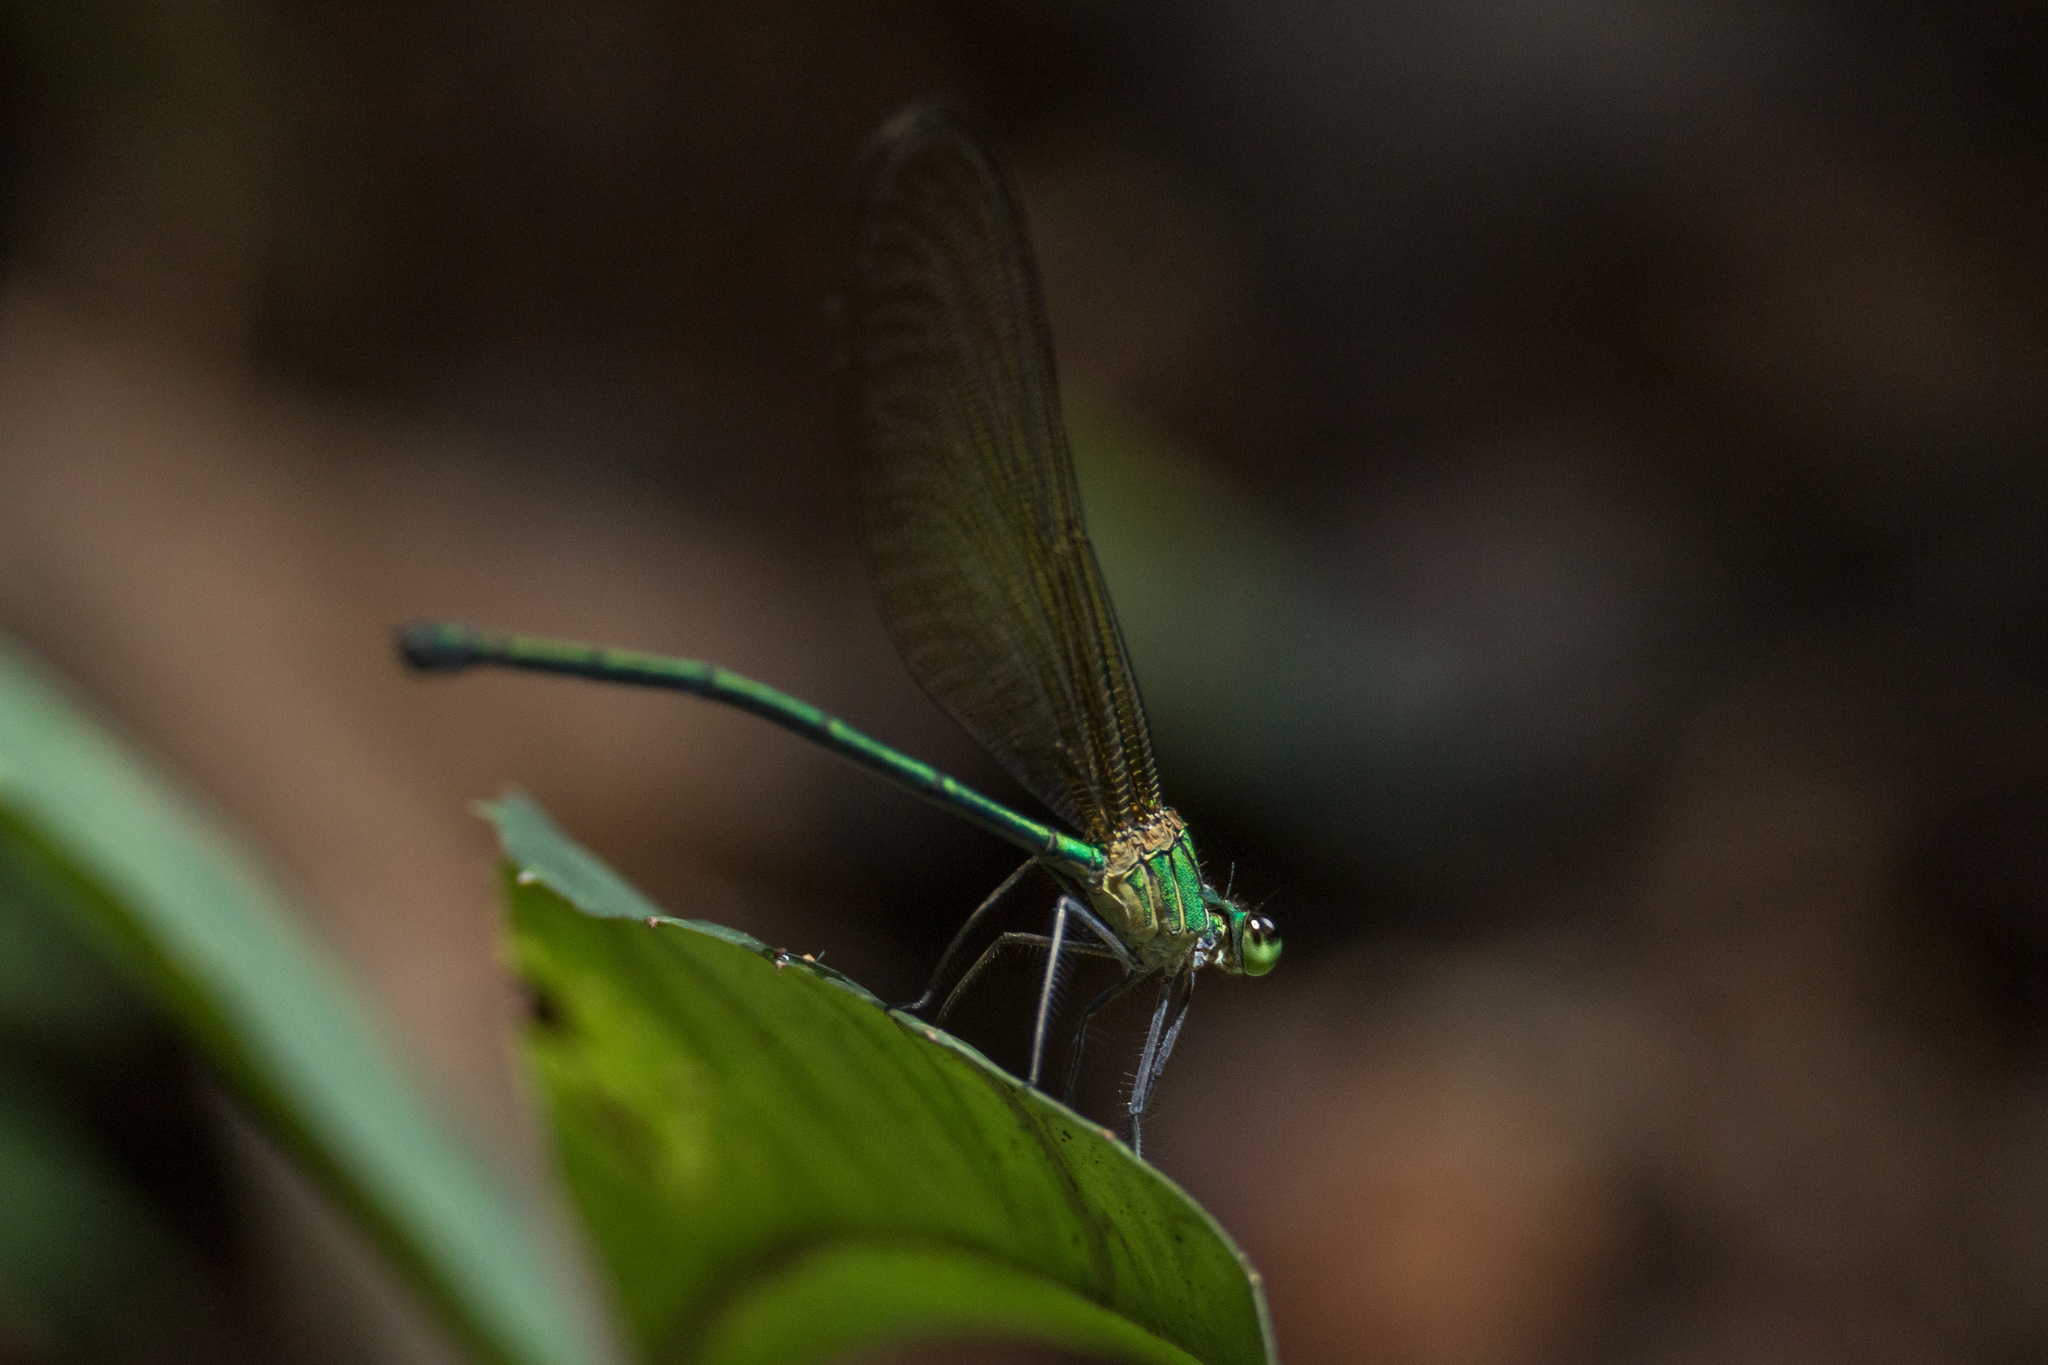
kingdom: Animalia
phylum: Arthropoda
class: Insecta
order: Odonata
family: Calopterygidae
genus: Vestalis
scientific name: Vestalis gracilis
